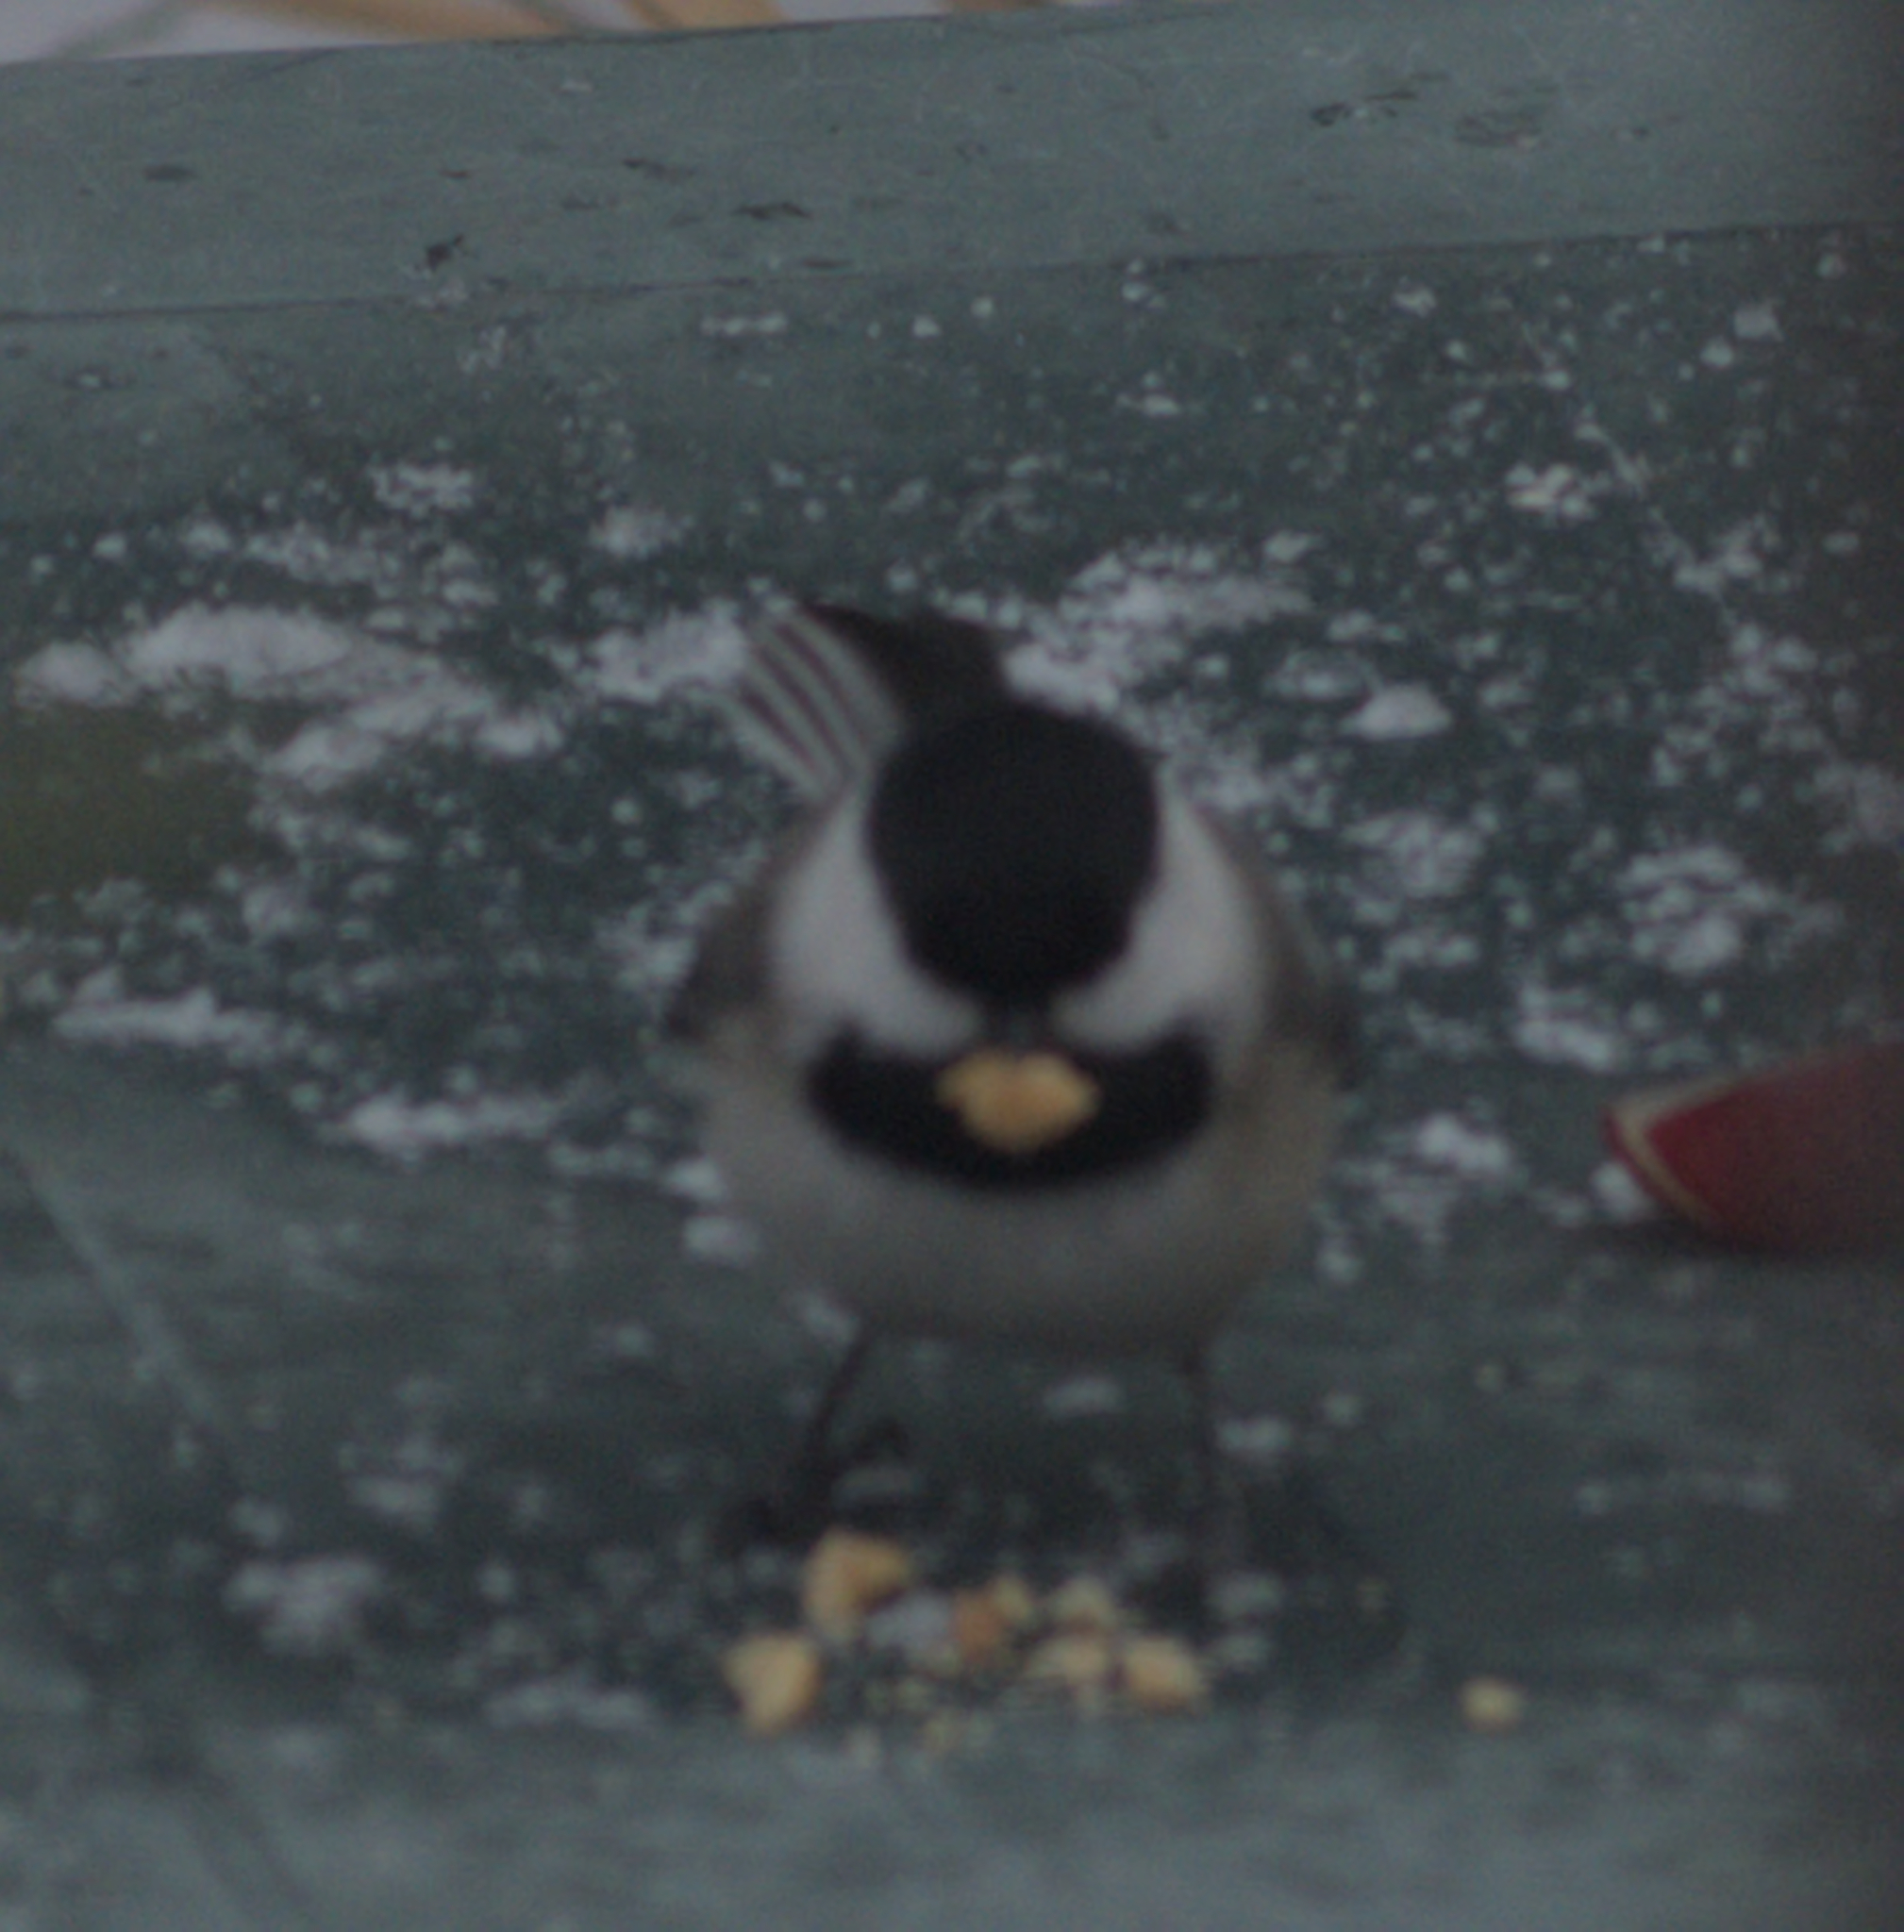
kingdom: Animalia
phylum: Chordata
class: Aves
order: Passeriformes
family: Paridae
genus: Poecile
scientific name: Poecile atricapillus
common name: Black-capped chickadee
